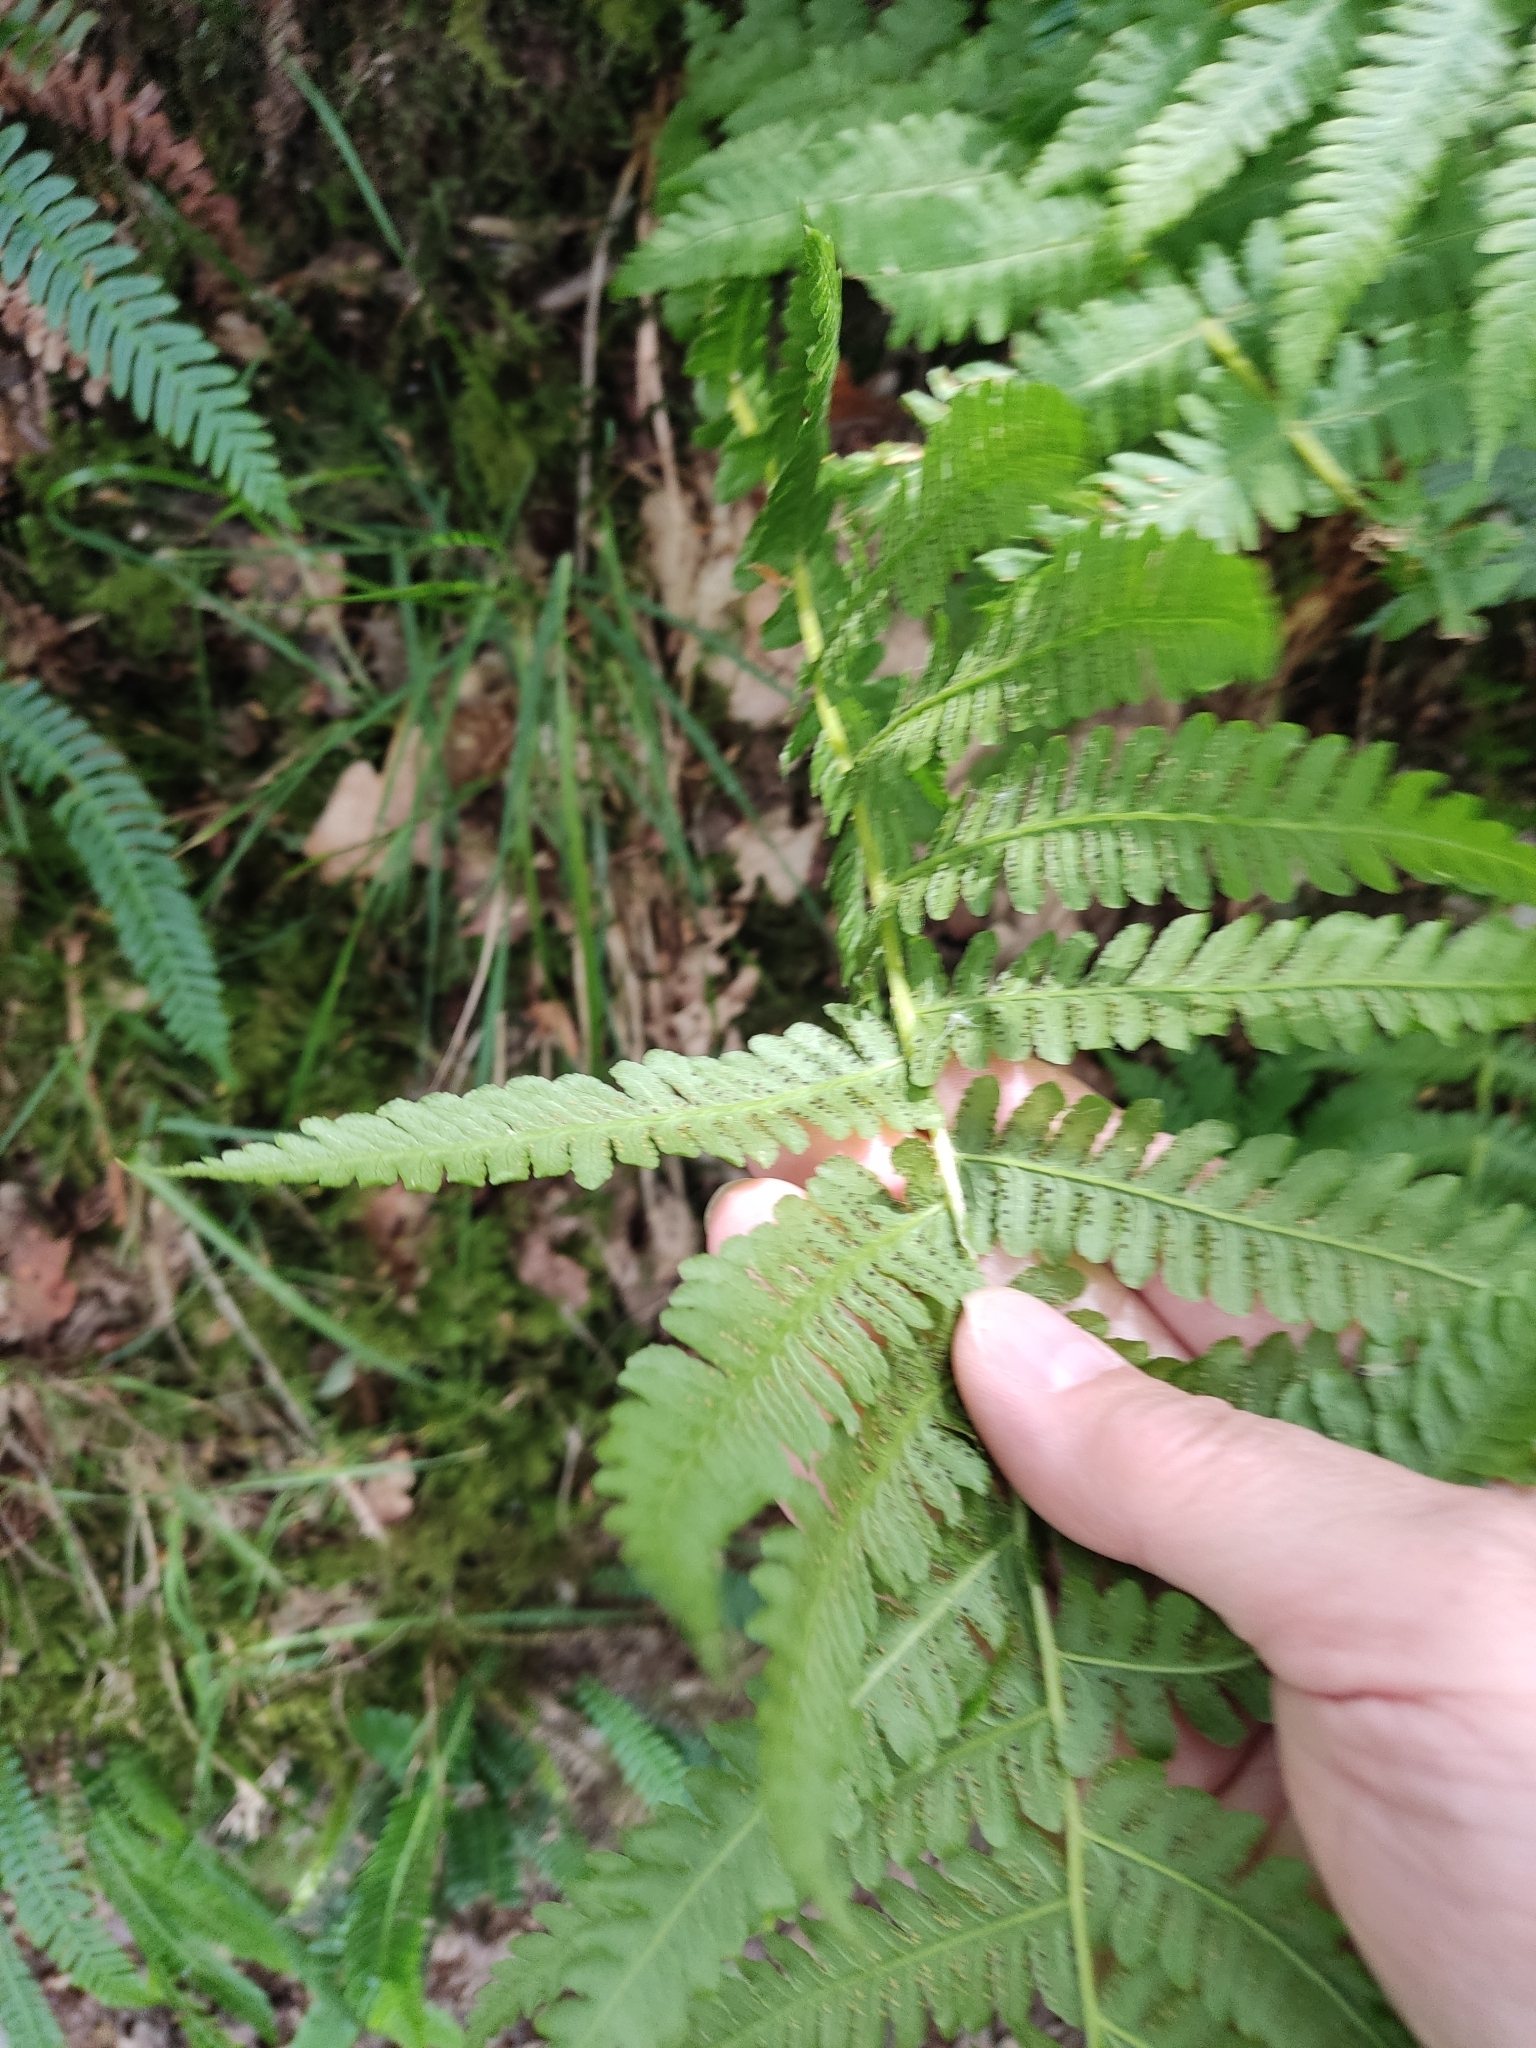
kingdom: Plantae
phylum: Tracheophyta
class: Polypodiopsida
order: Polypodiales
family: Thelypteridaceae
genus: Oreopteris
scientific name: Oreopteris limbosperma
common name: Lemon-scented fern
